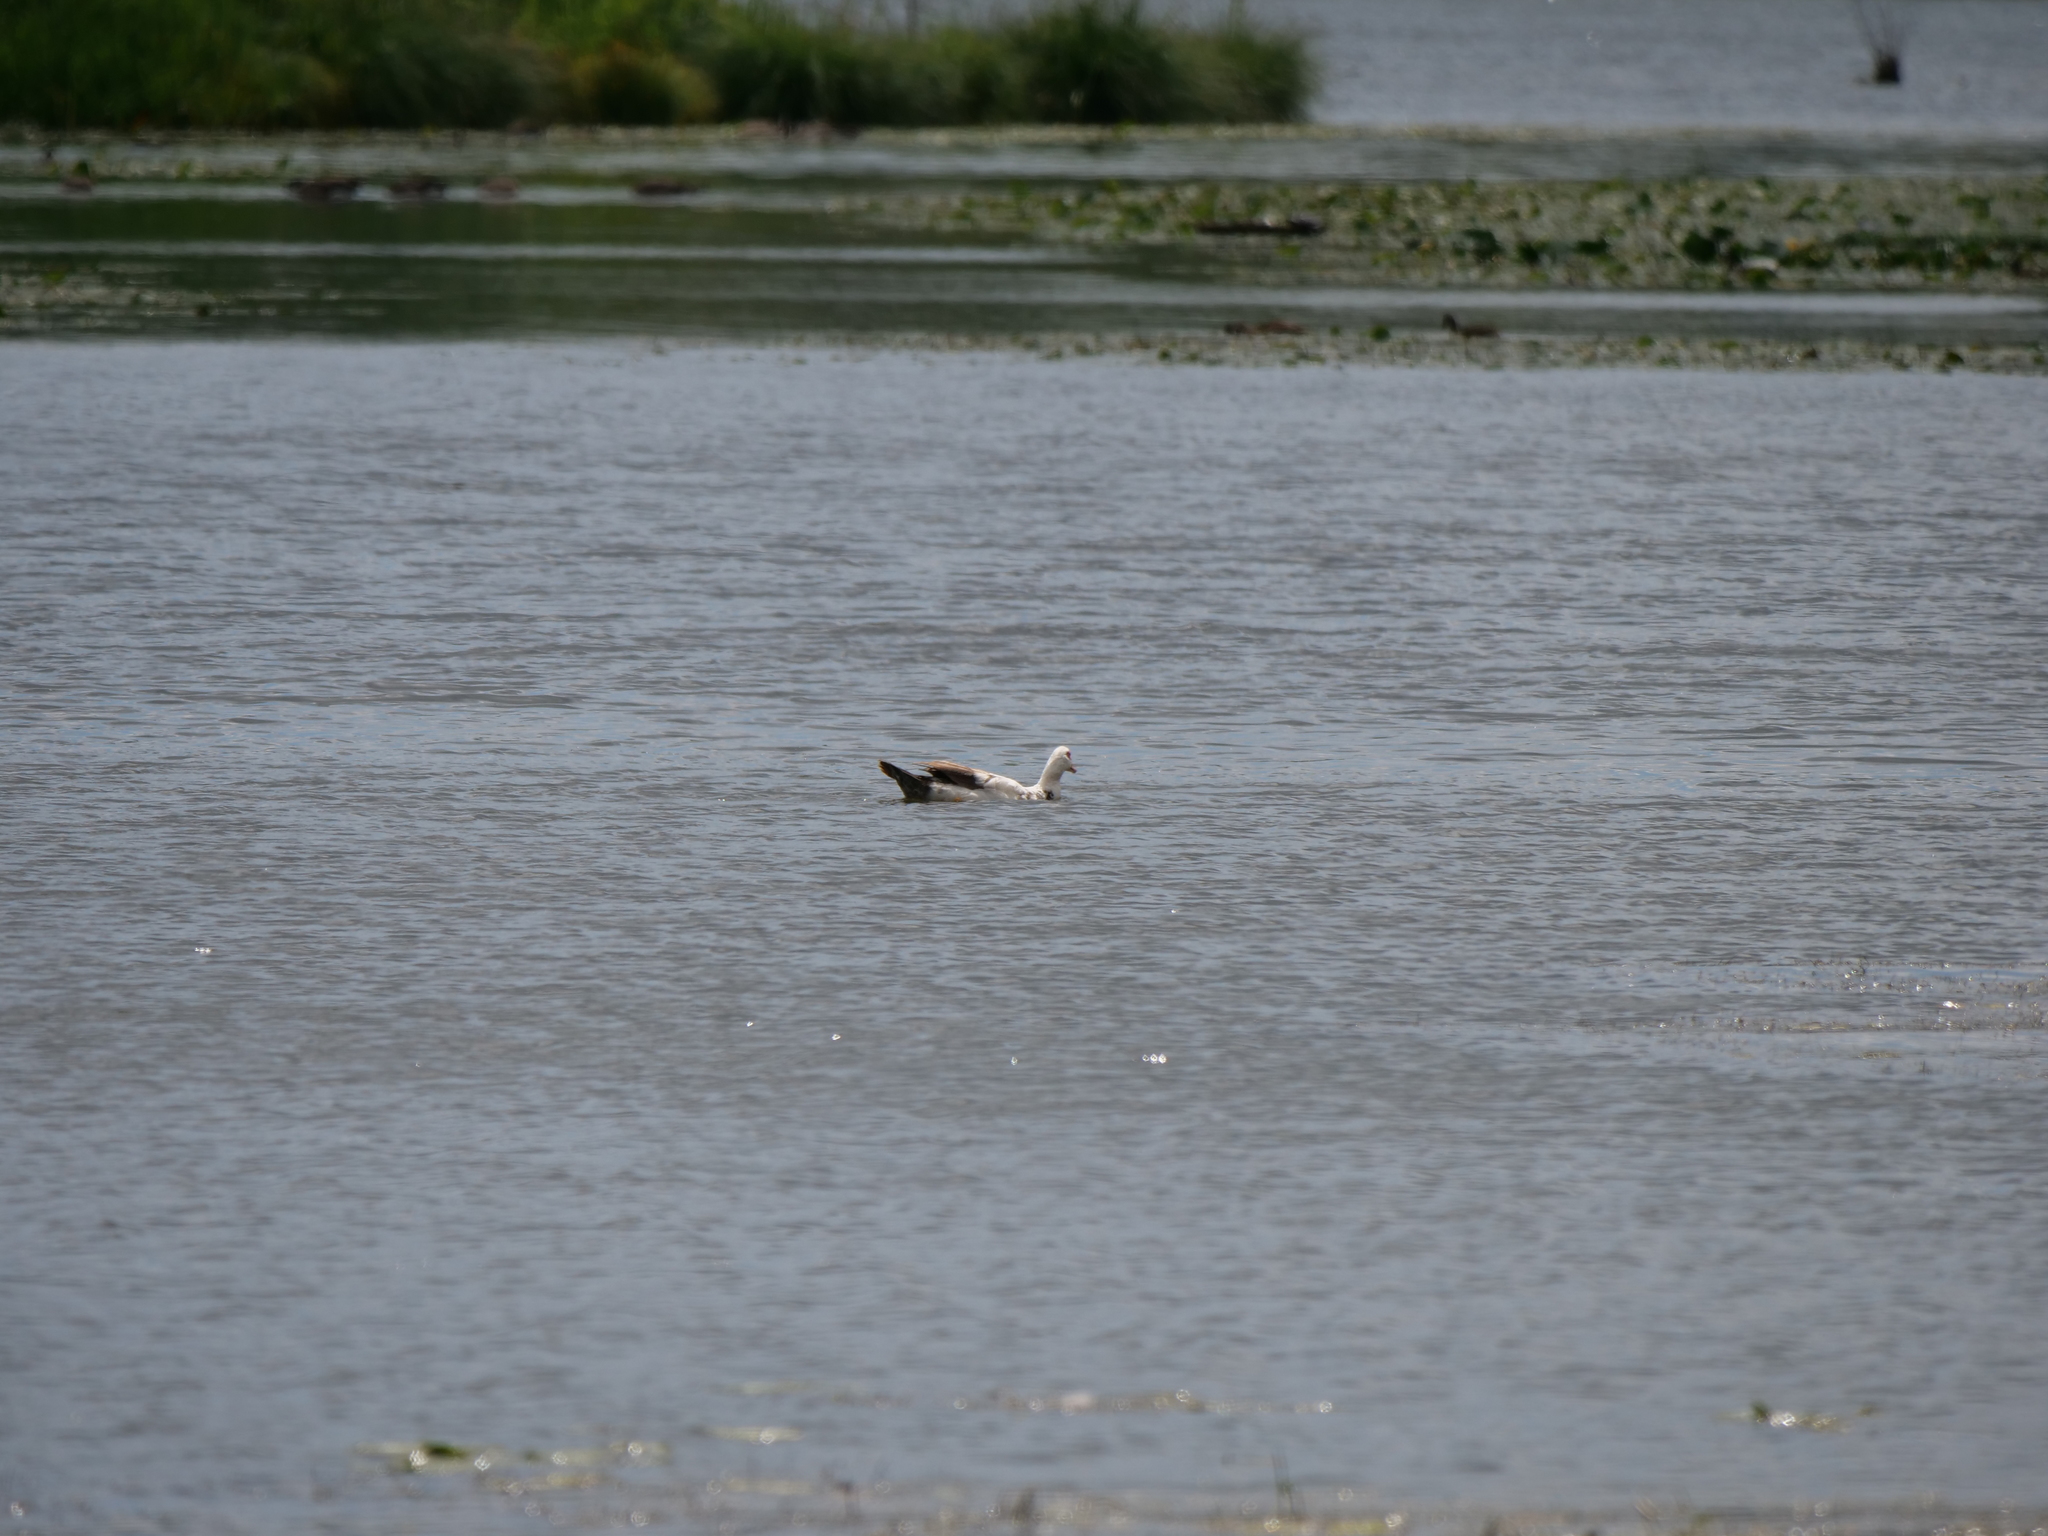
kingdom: Animalia
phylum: Chordata
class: Aves
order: Anseriformes
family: Anatidae
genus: Cairina
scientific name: Cairina moschata
